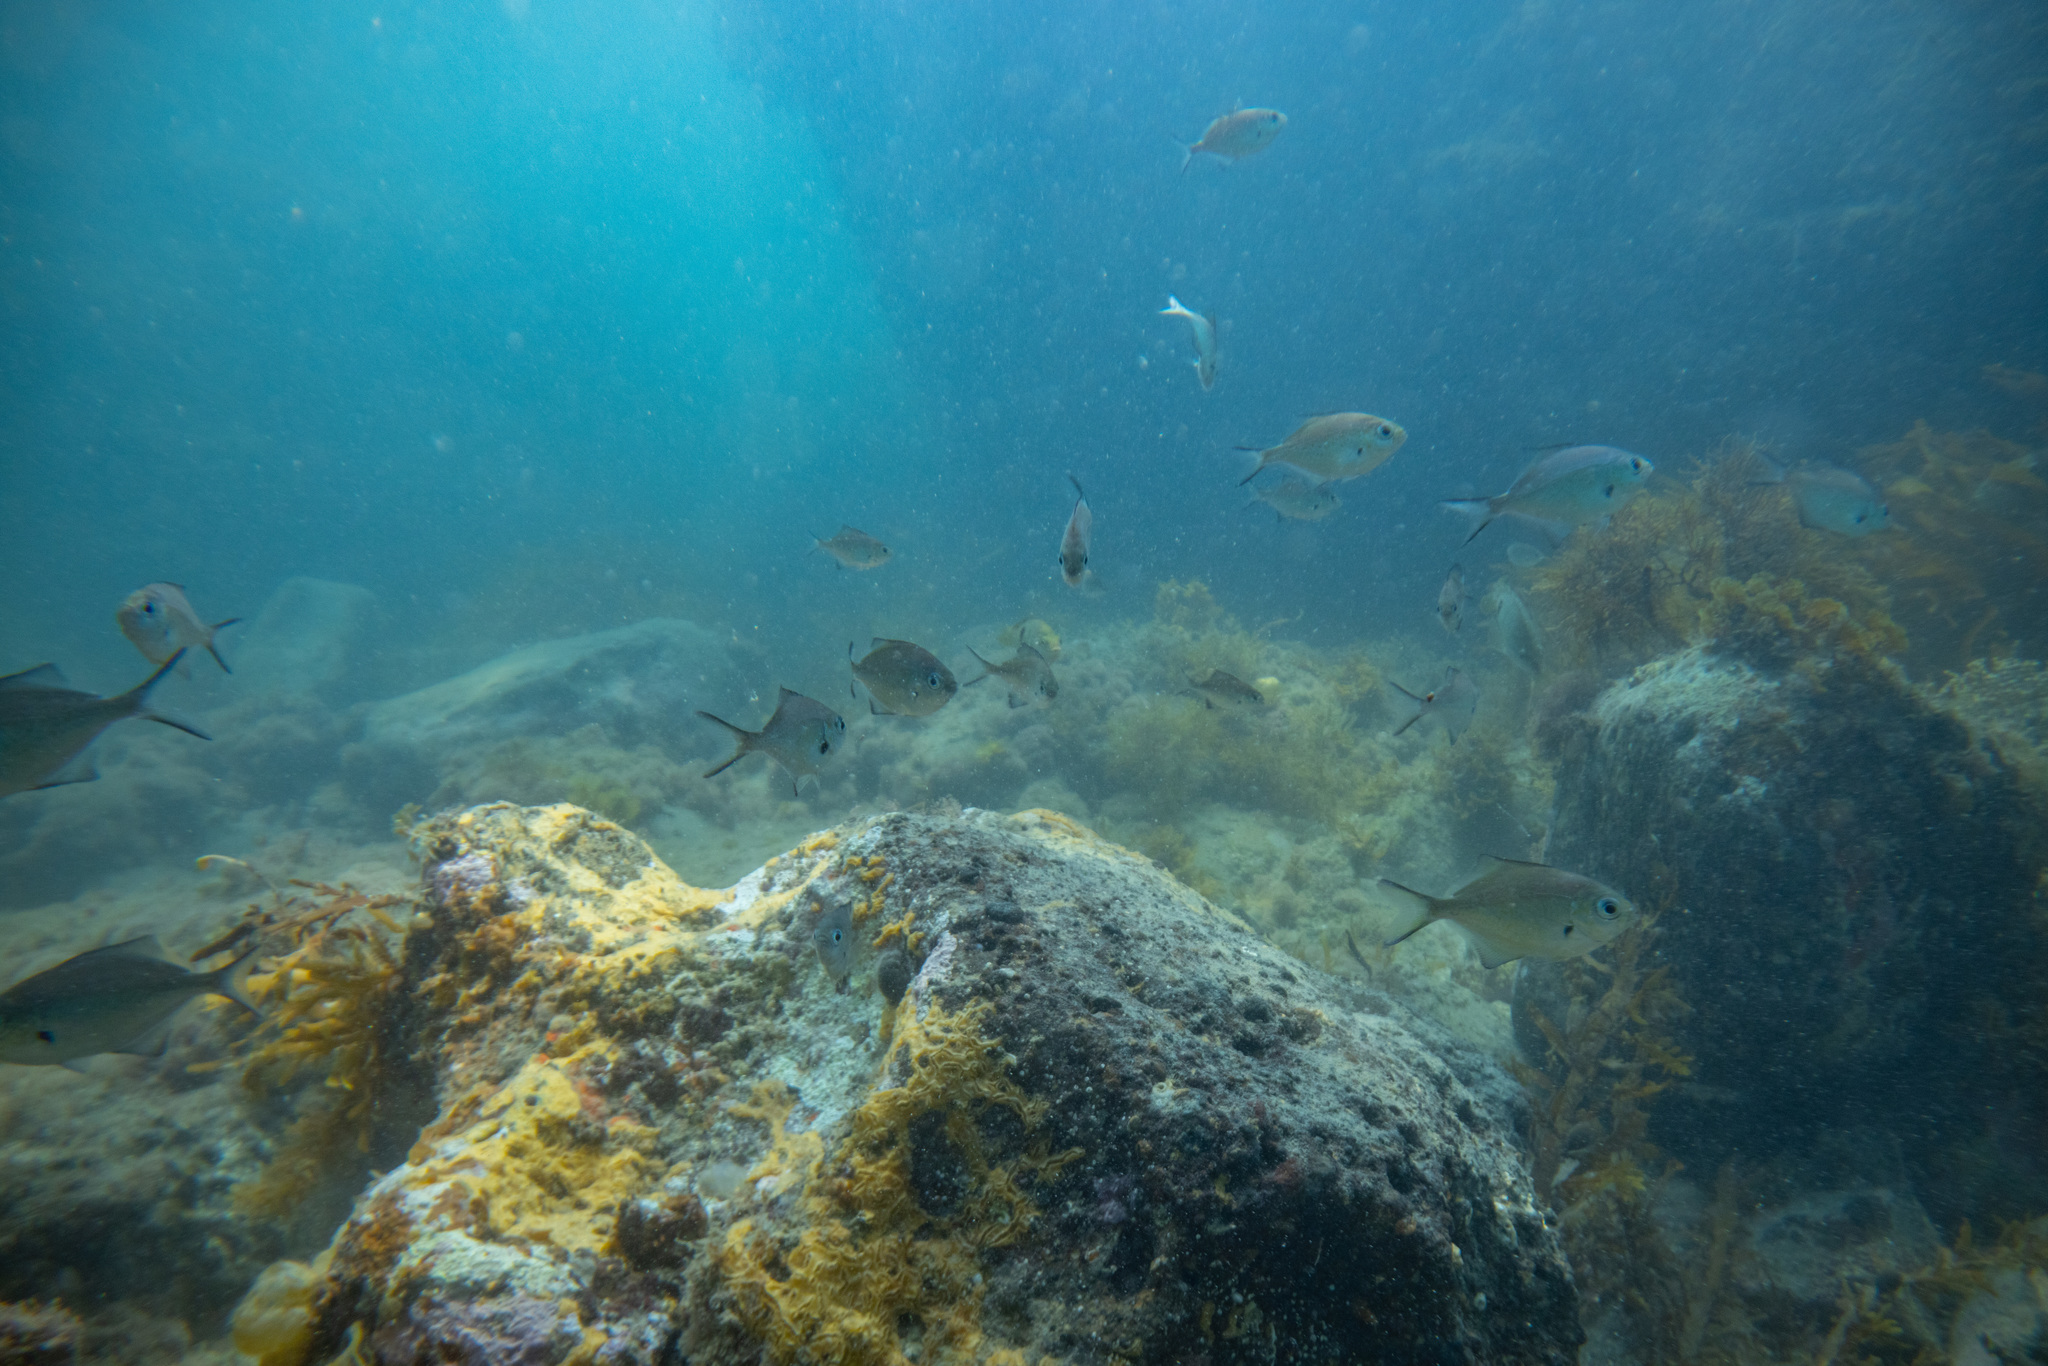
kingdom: Animalia
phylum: Chordata
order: Perciformes
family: Kyphosidae
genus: Scorpis
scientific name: Scorpis lineolata
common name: Sweep
